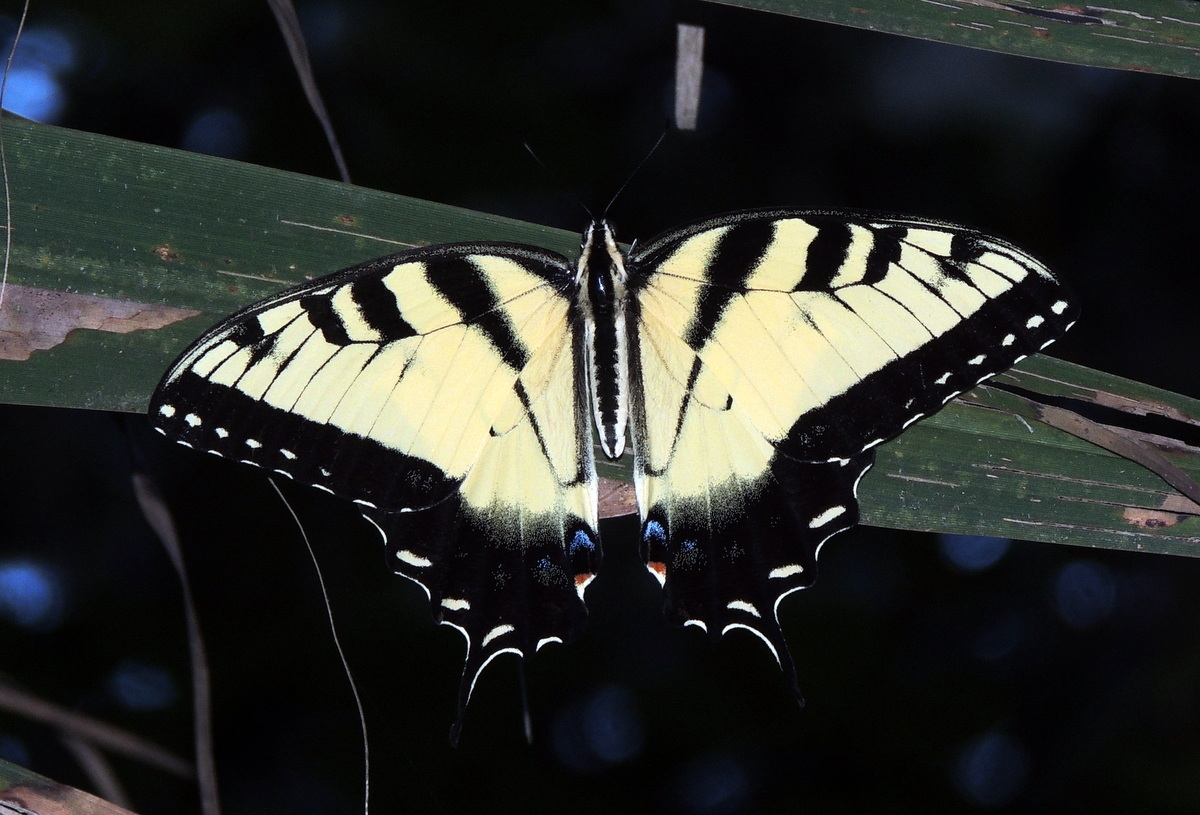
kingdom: Animalia
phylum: Arthropoda
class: Insecta
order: Lepidoptera
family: Papilionidae
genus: Papilio
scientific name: Papilio glaucus
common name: Tiger swallowtail
